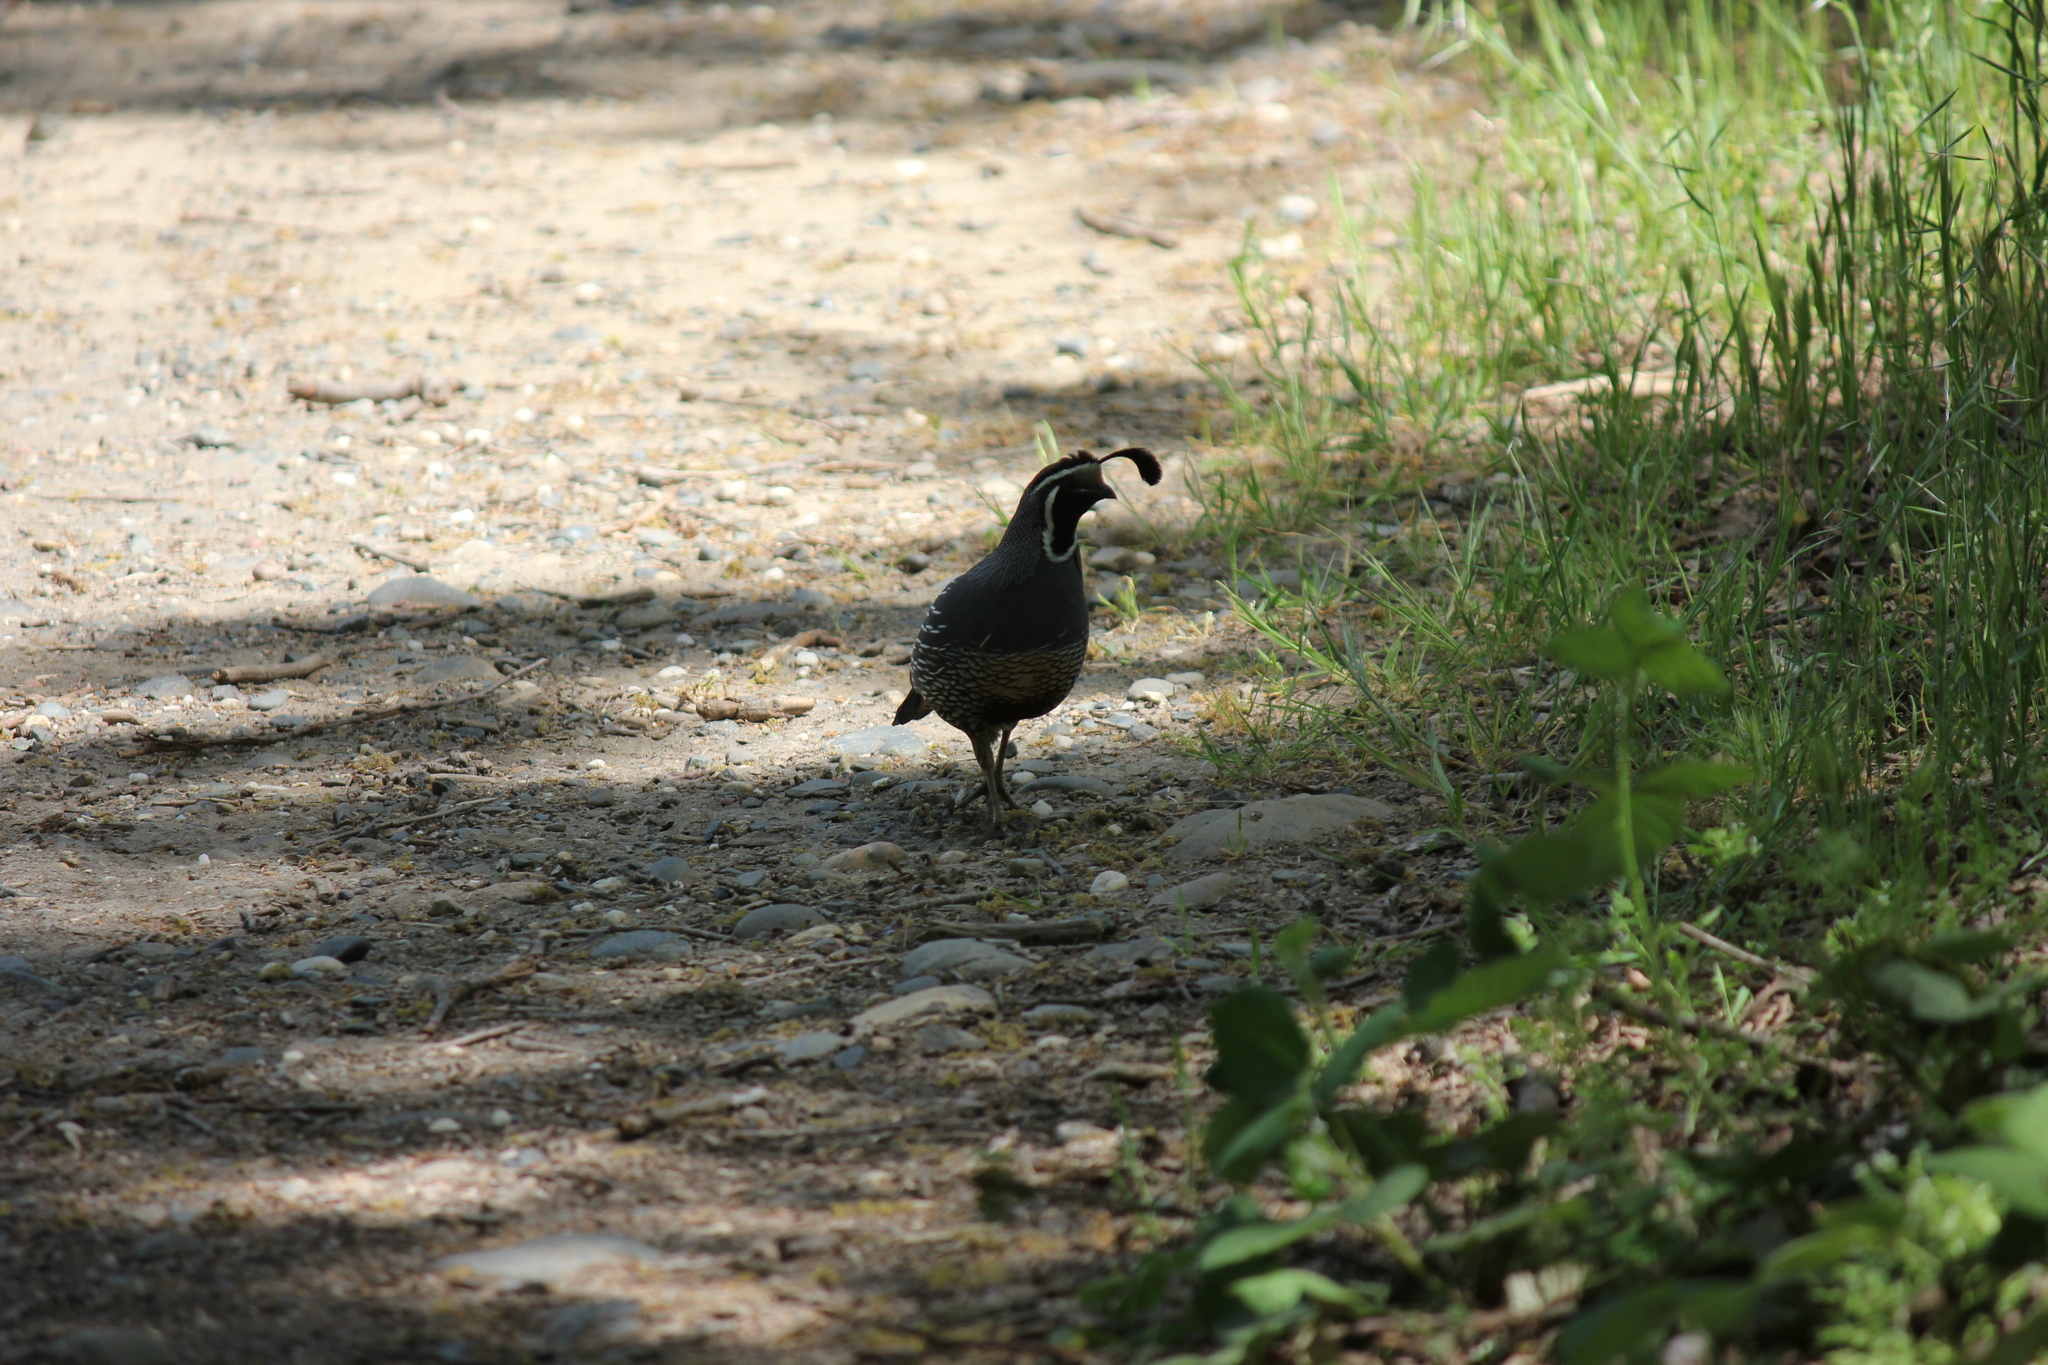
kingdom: Animalia
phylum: Chordata
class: Aves
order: Galliformes
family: Odontophoridae
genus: Callipepla
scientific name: Callipepla californica
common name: California quail
